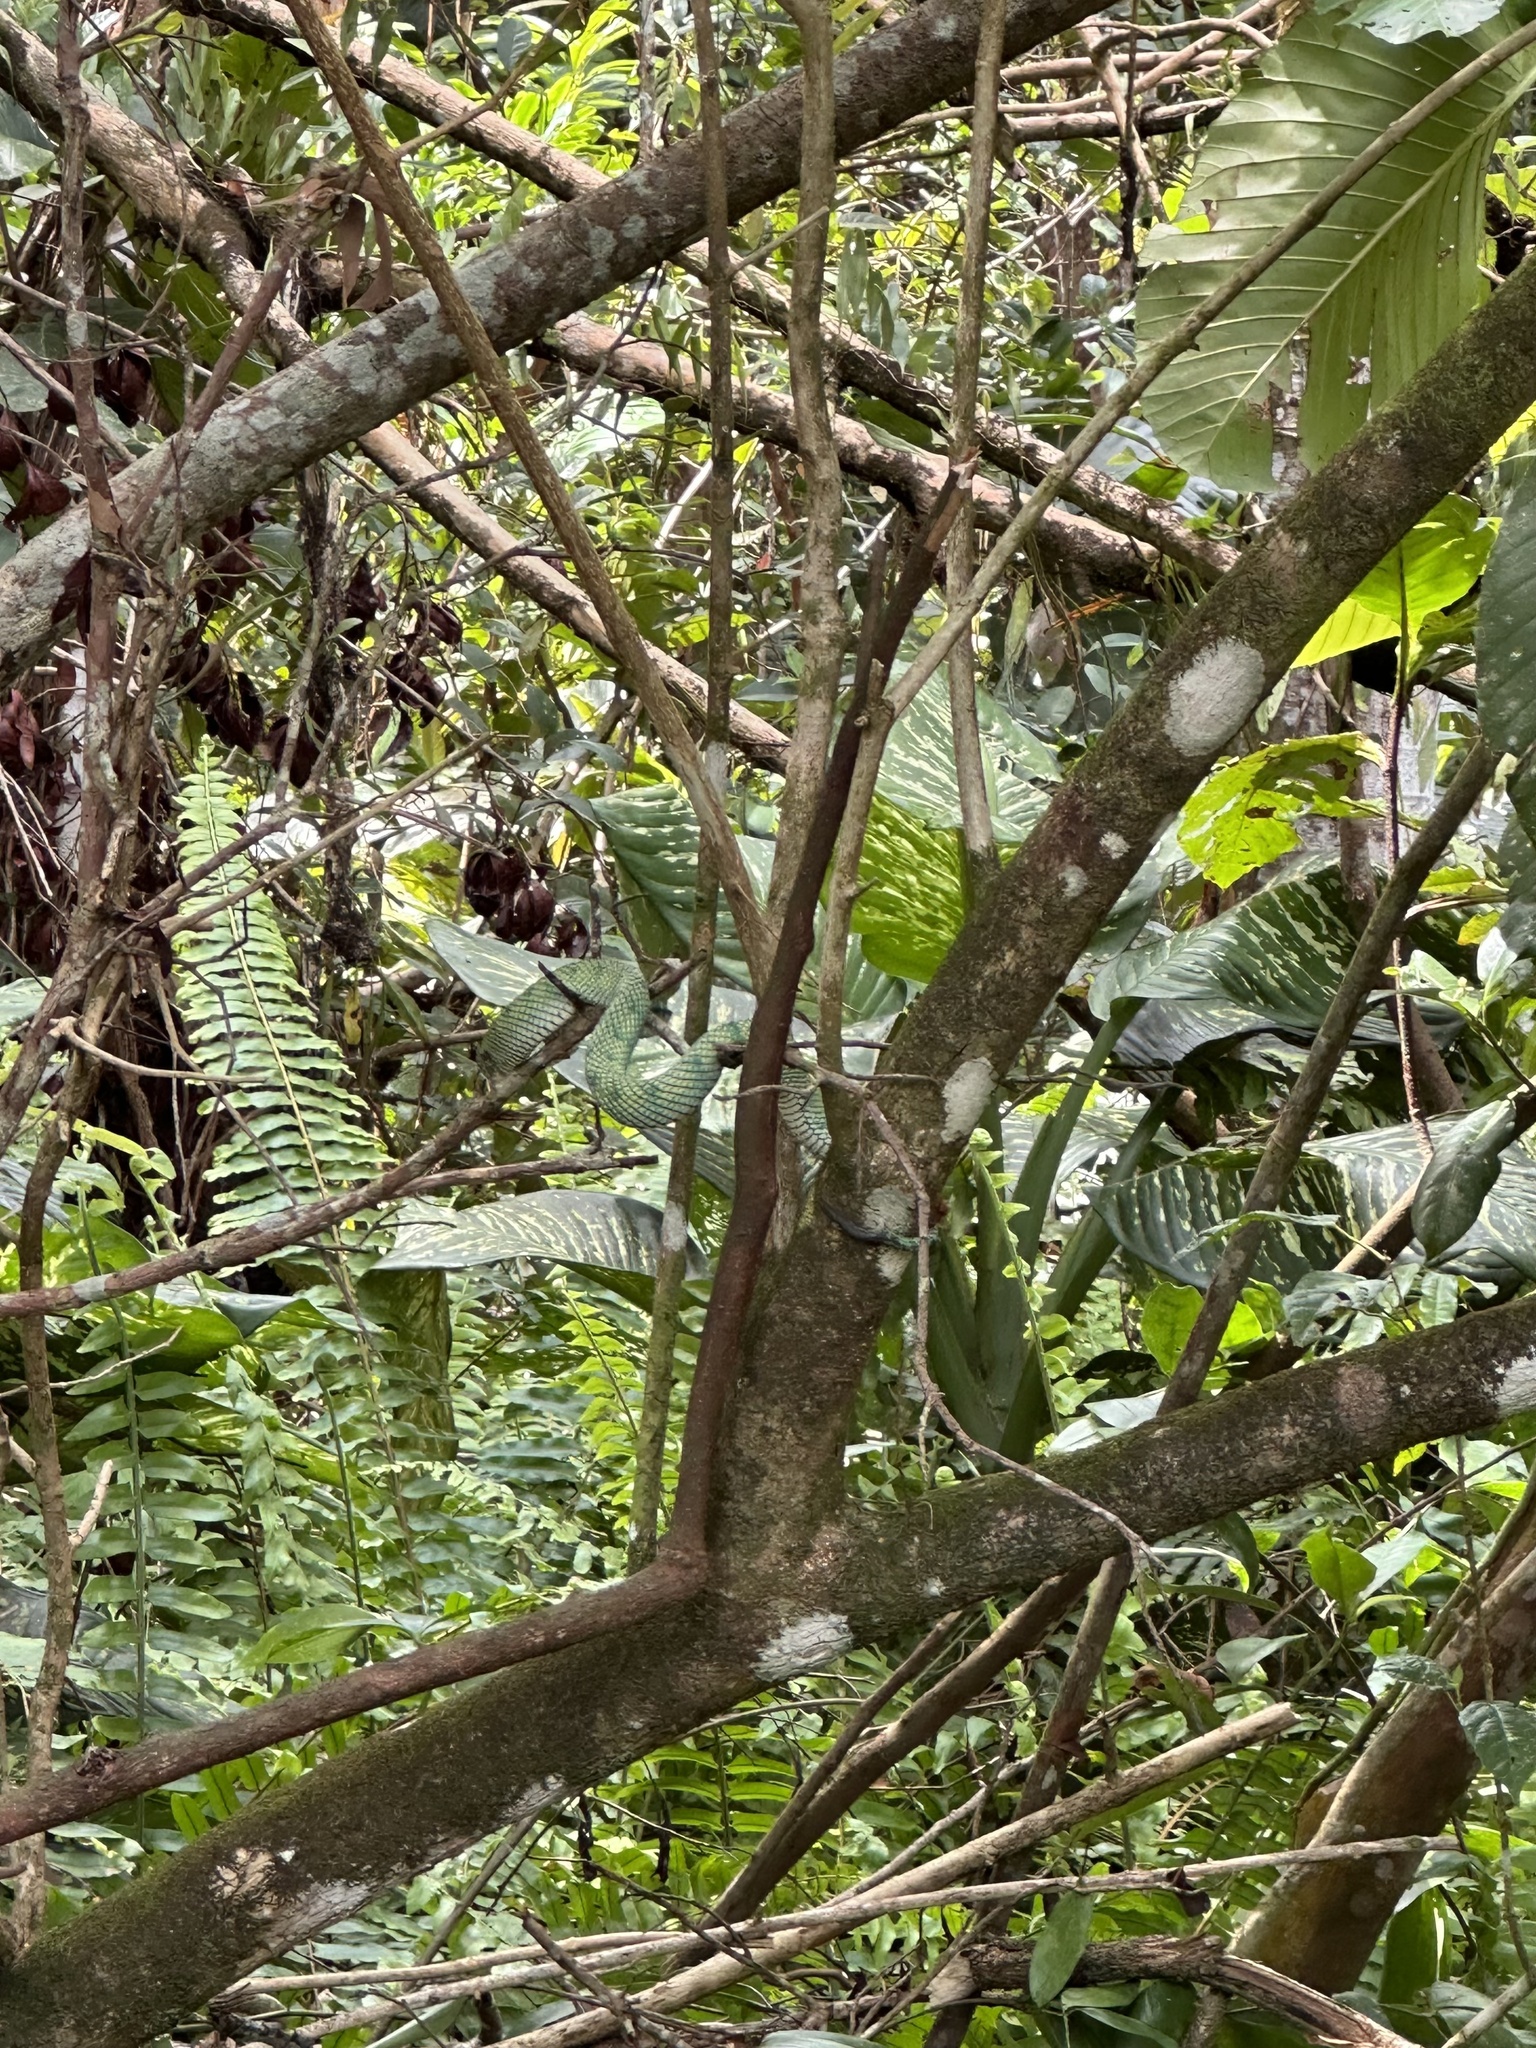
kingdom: Animalia
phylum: Chordata
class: Squamata
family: Viperidae
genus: Tropidolaemus
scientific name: Tropidolaemus subannulatus
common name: North philippine temple pitviper
